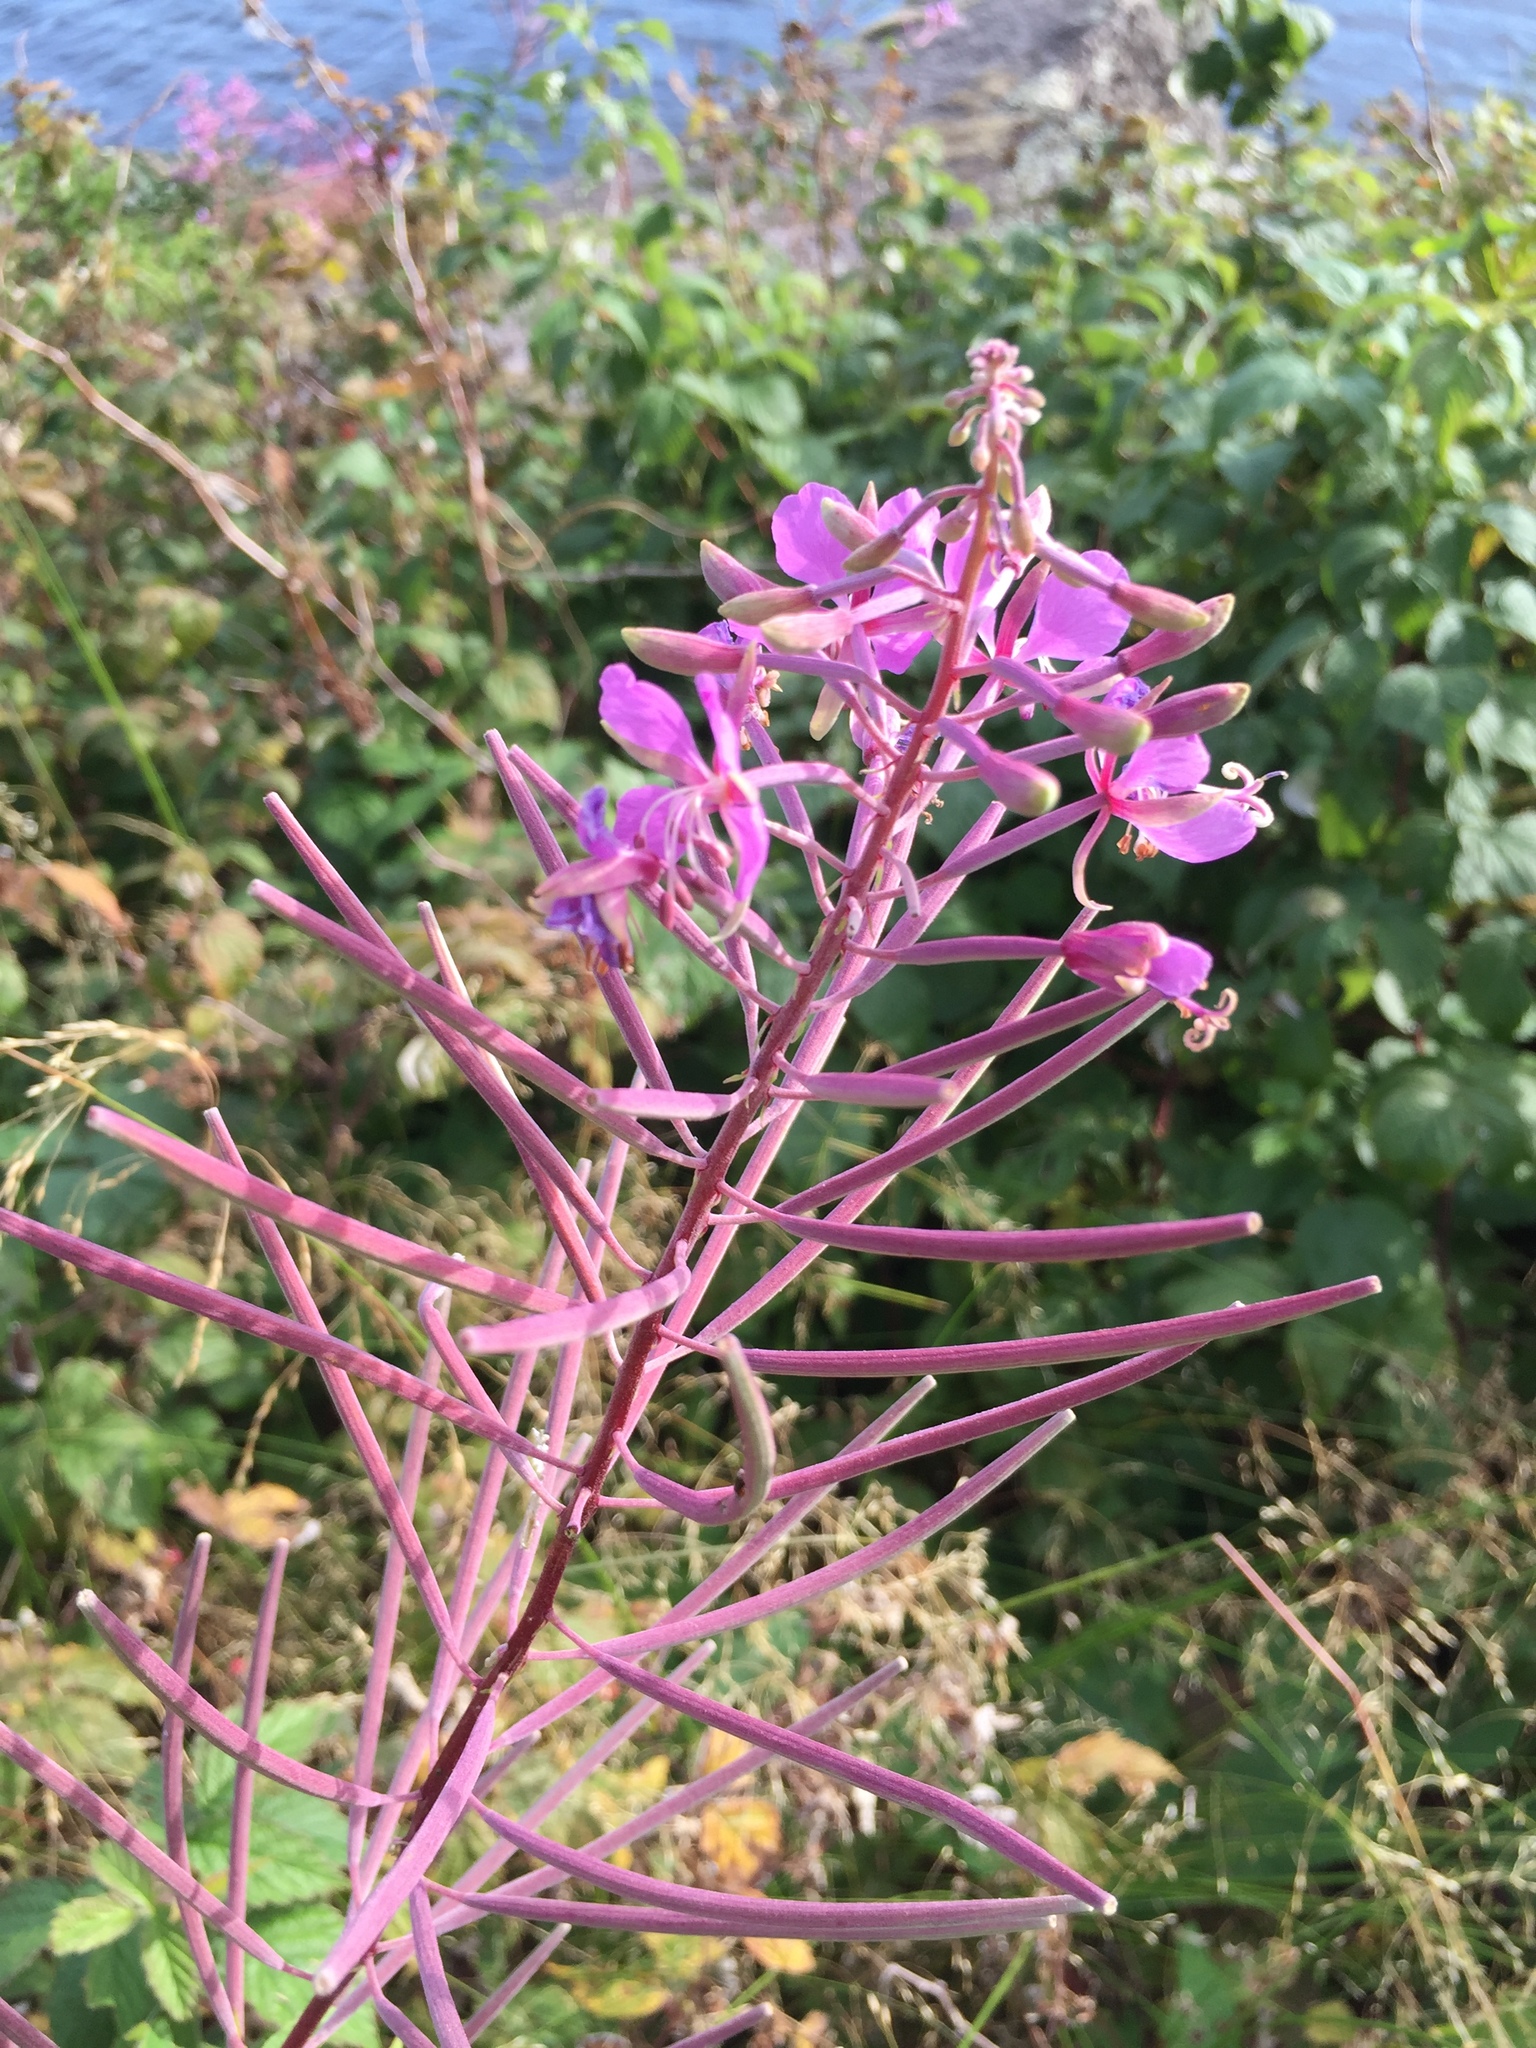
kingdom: Plantae
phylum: Tracheophyta
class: Magnoliopsida
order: Myrtales
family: Onagraceae
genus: Chamaenerion
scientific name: Chamaenerion angustifolium
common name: Fireweed
